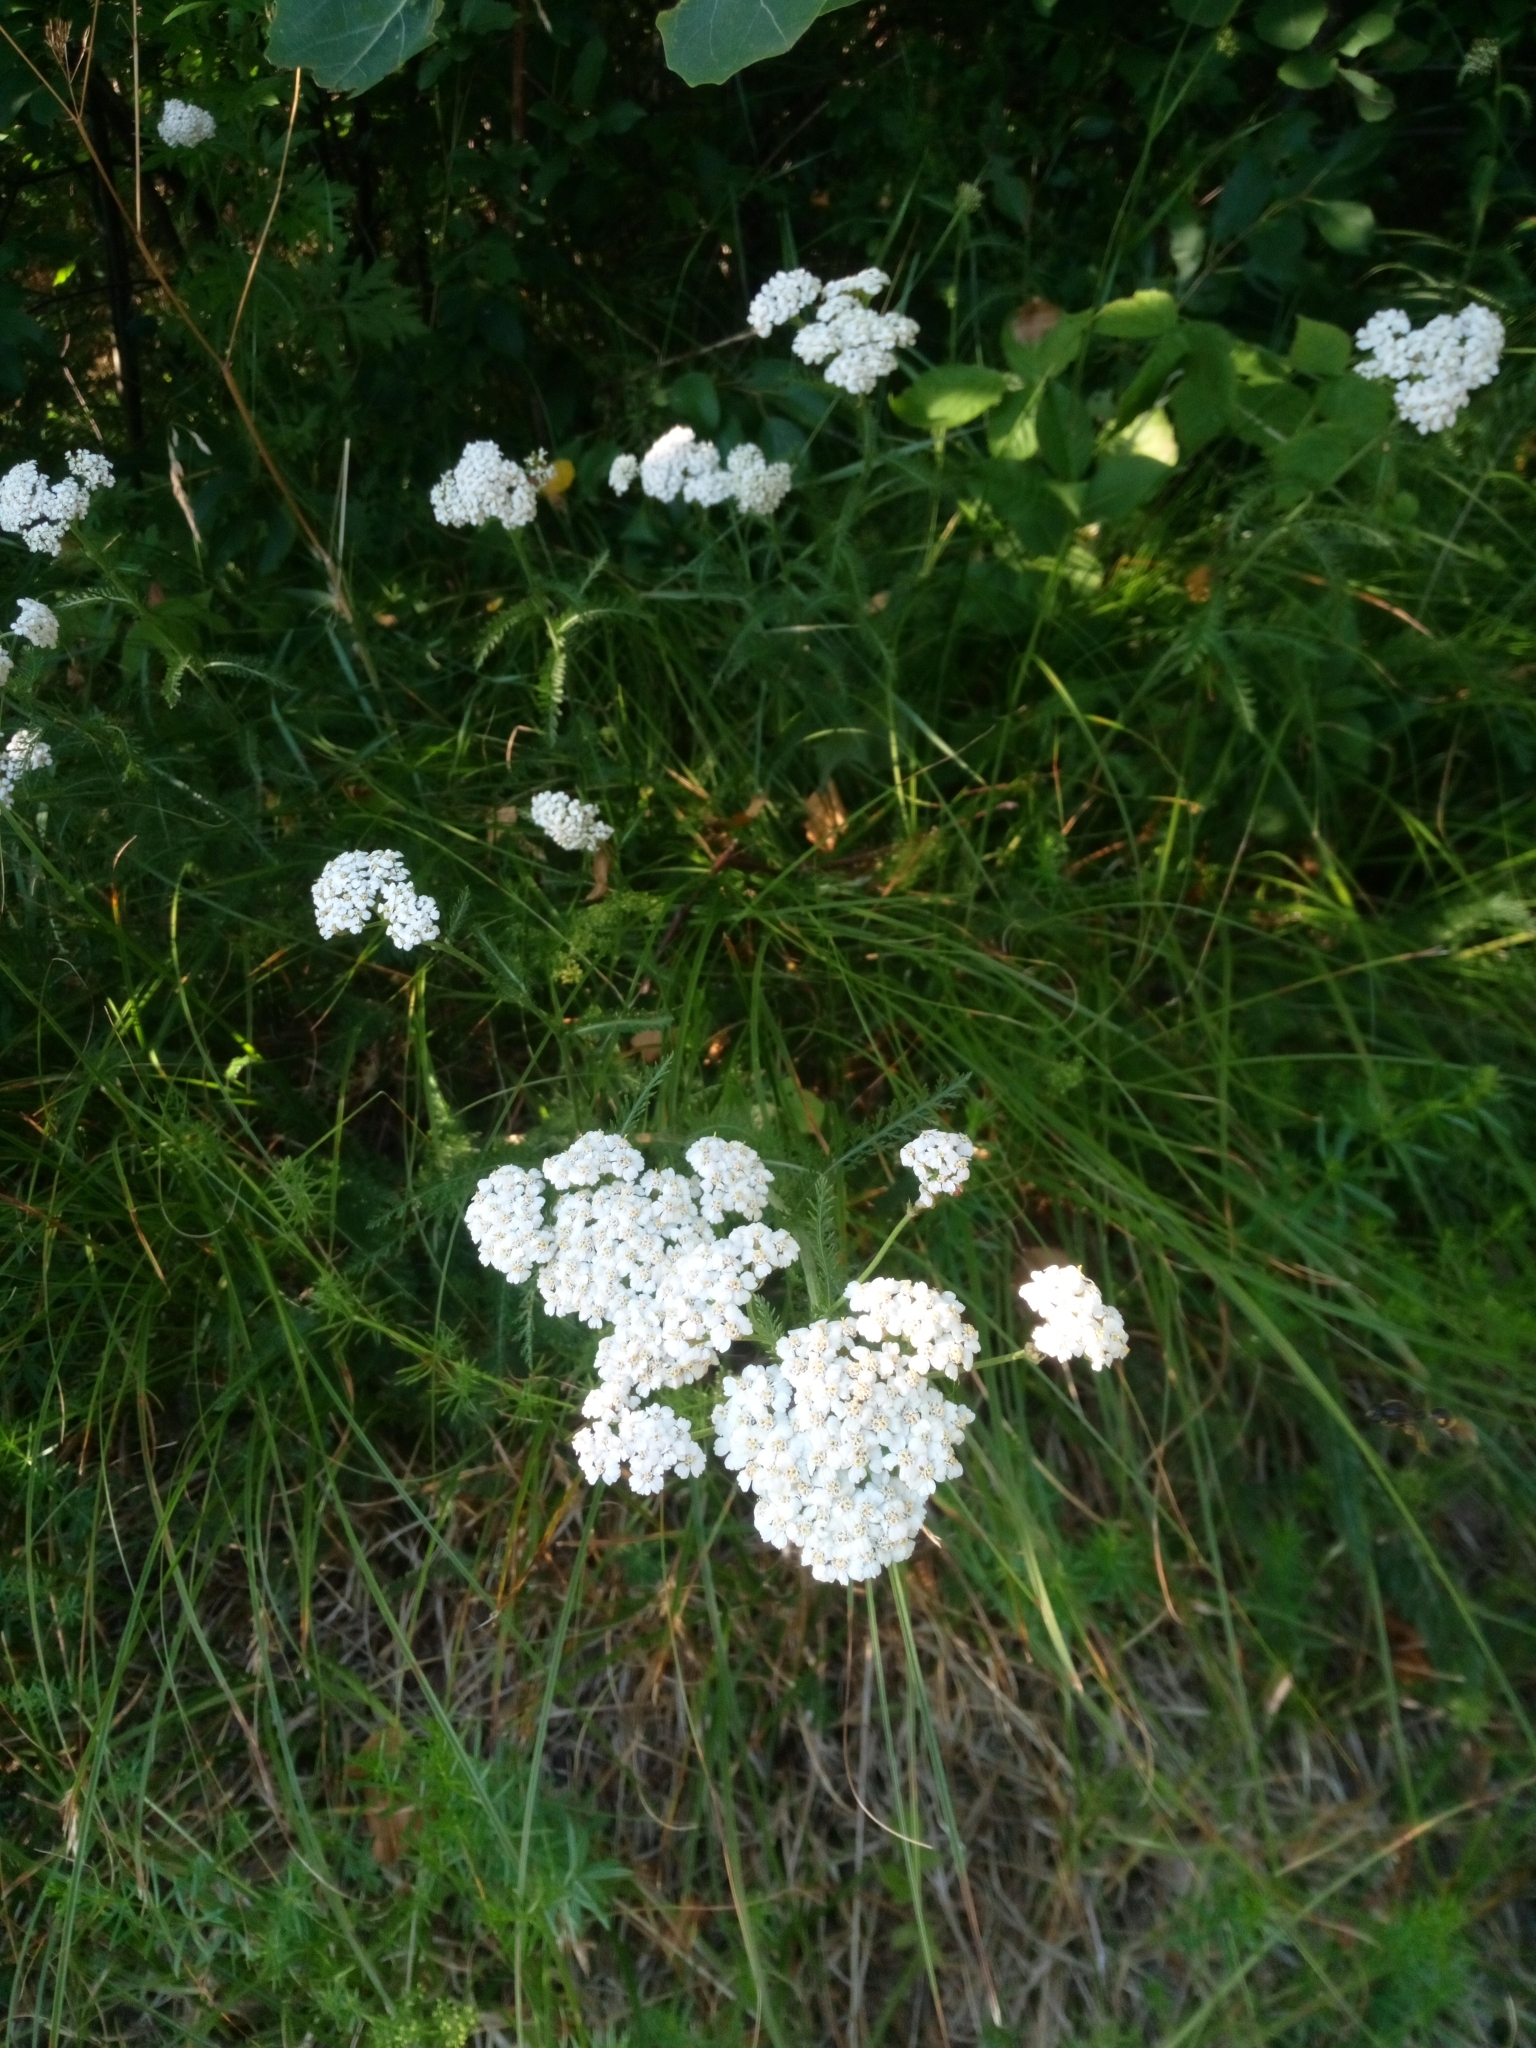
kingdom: Plantae
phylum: Tracheophyta
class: Magnoliopsida
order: Asterales
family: Asteraceae
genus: Achillea
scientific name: Achillea millefolium
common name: Yarrow
